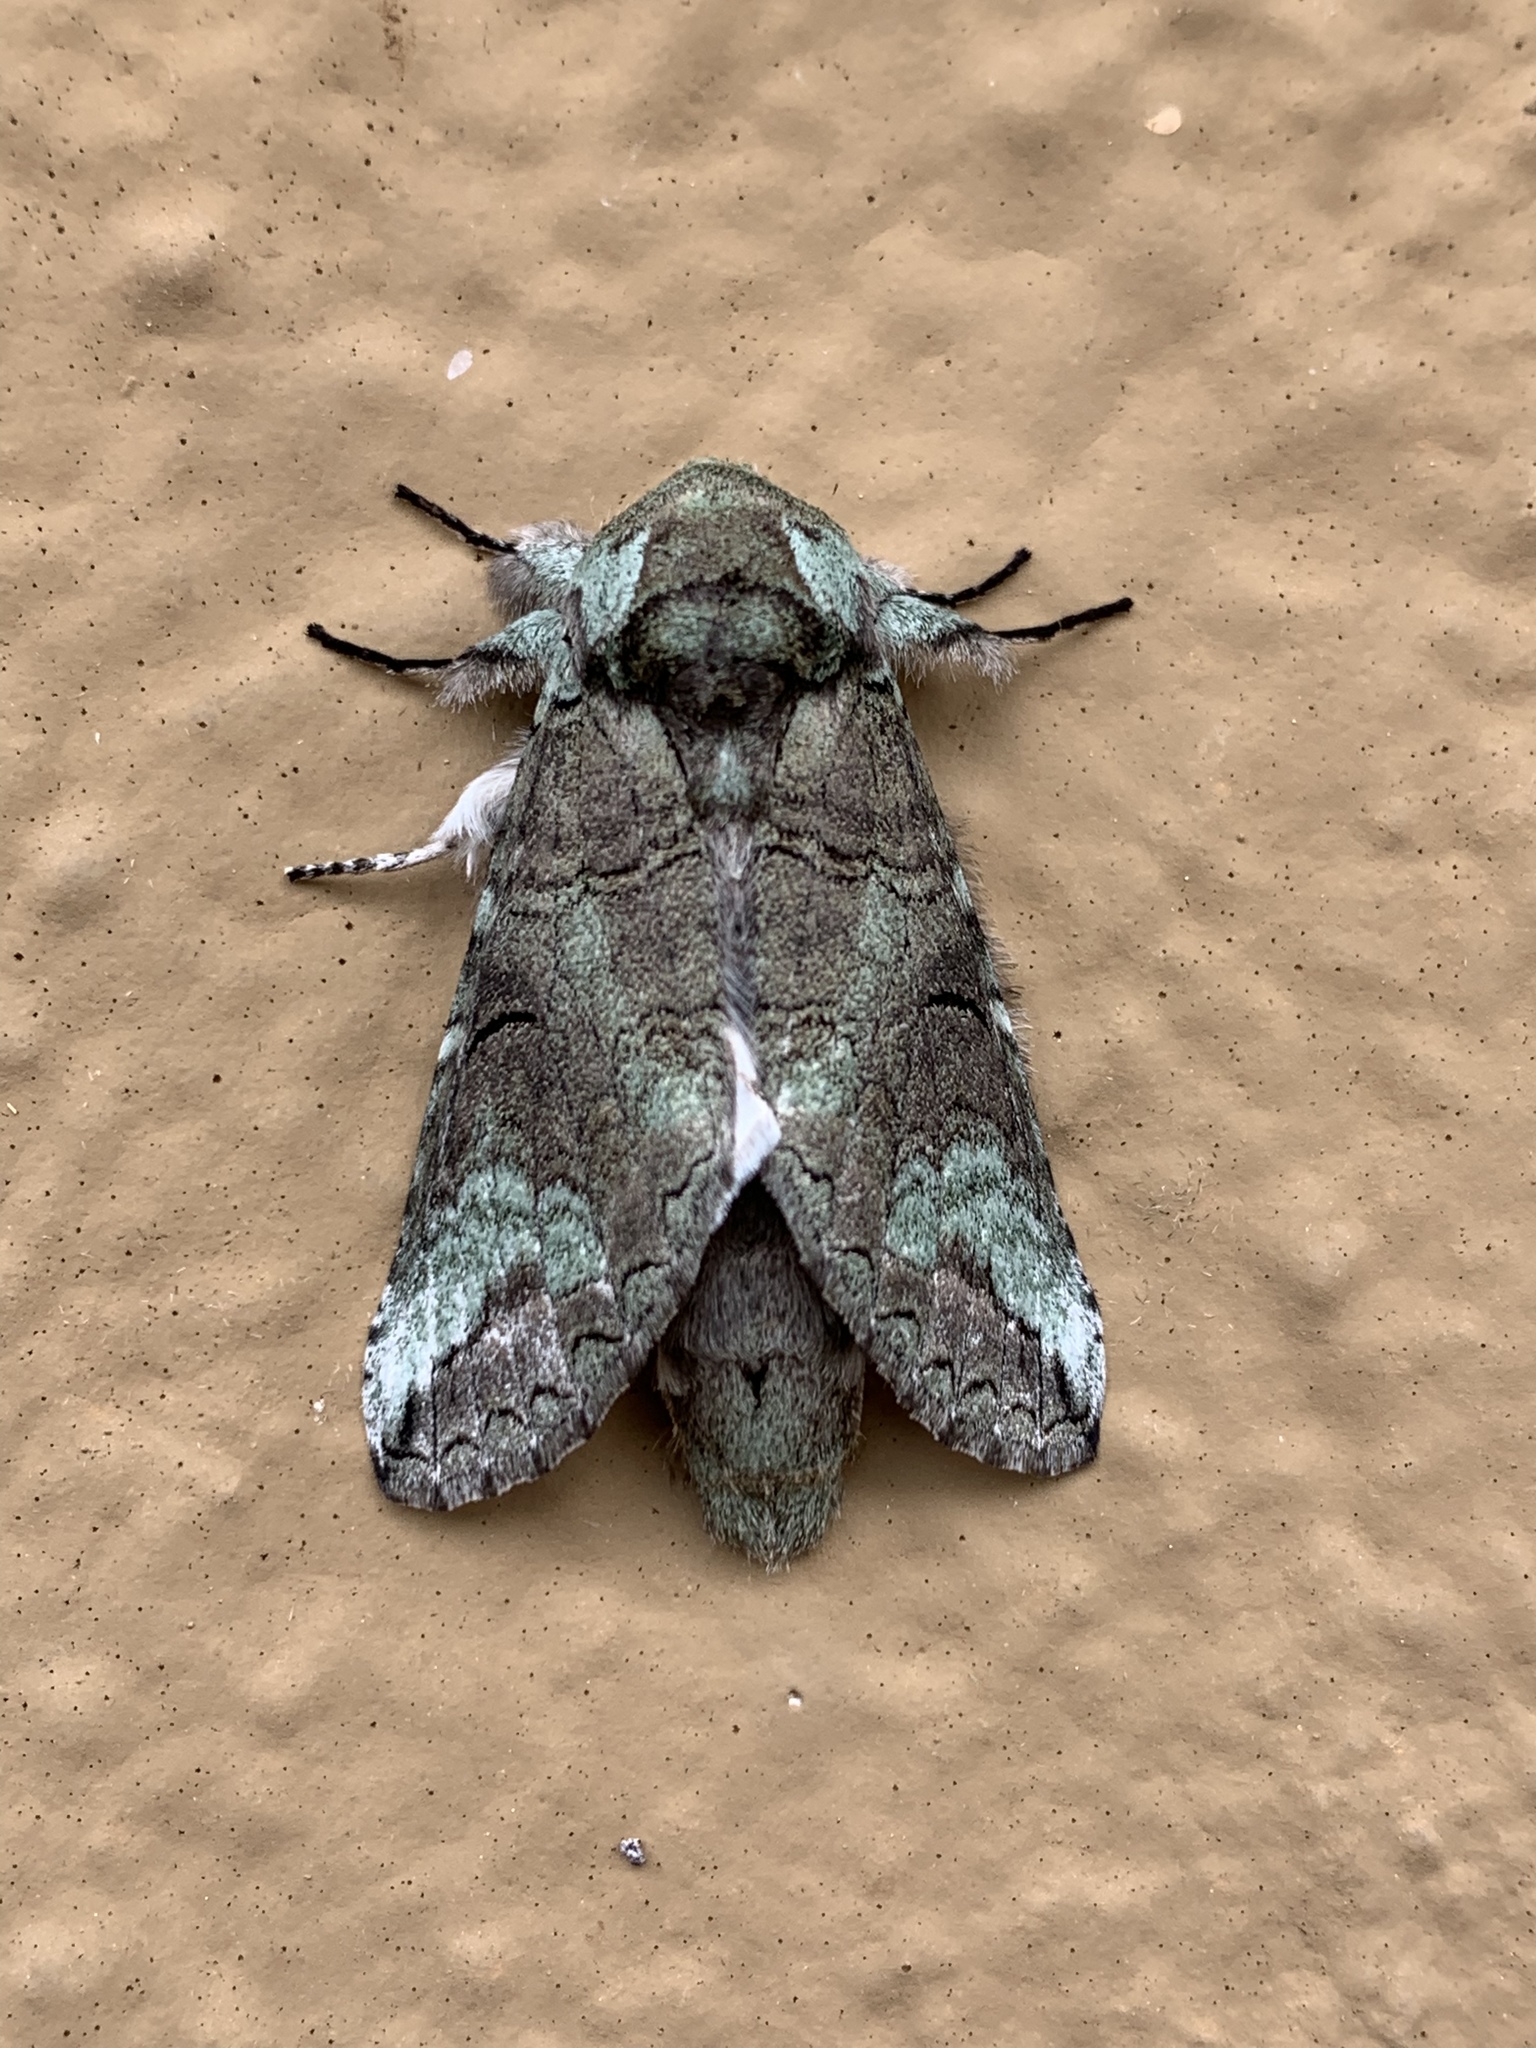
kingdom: Animalia
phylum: Arthropoda
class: Insecta
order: Lepidoptera
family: Notodontidae
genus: Litodonta
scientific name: Litodonta hydromeli
